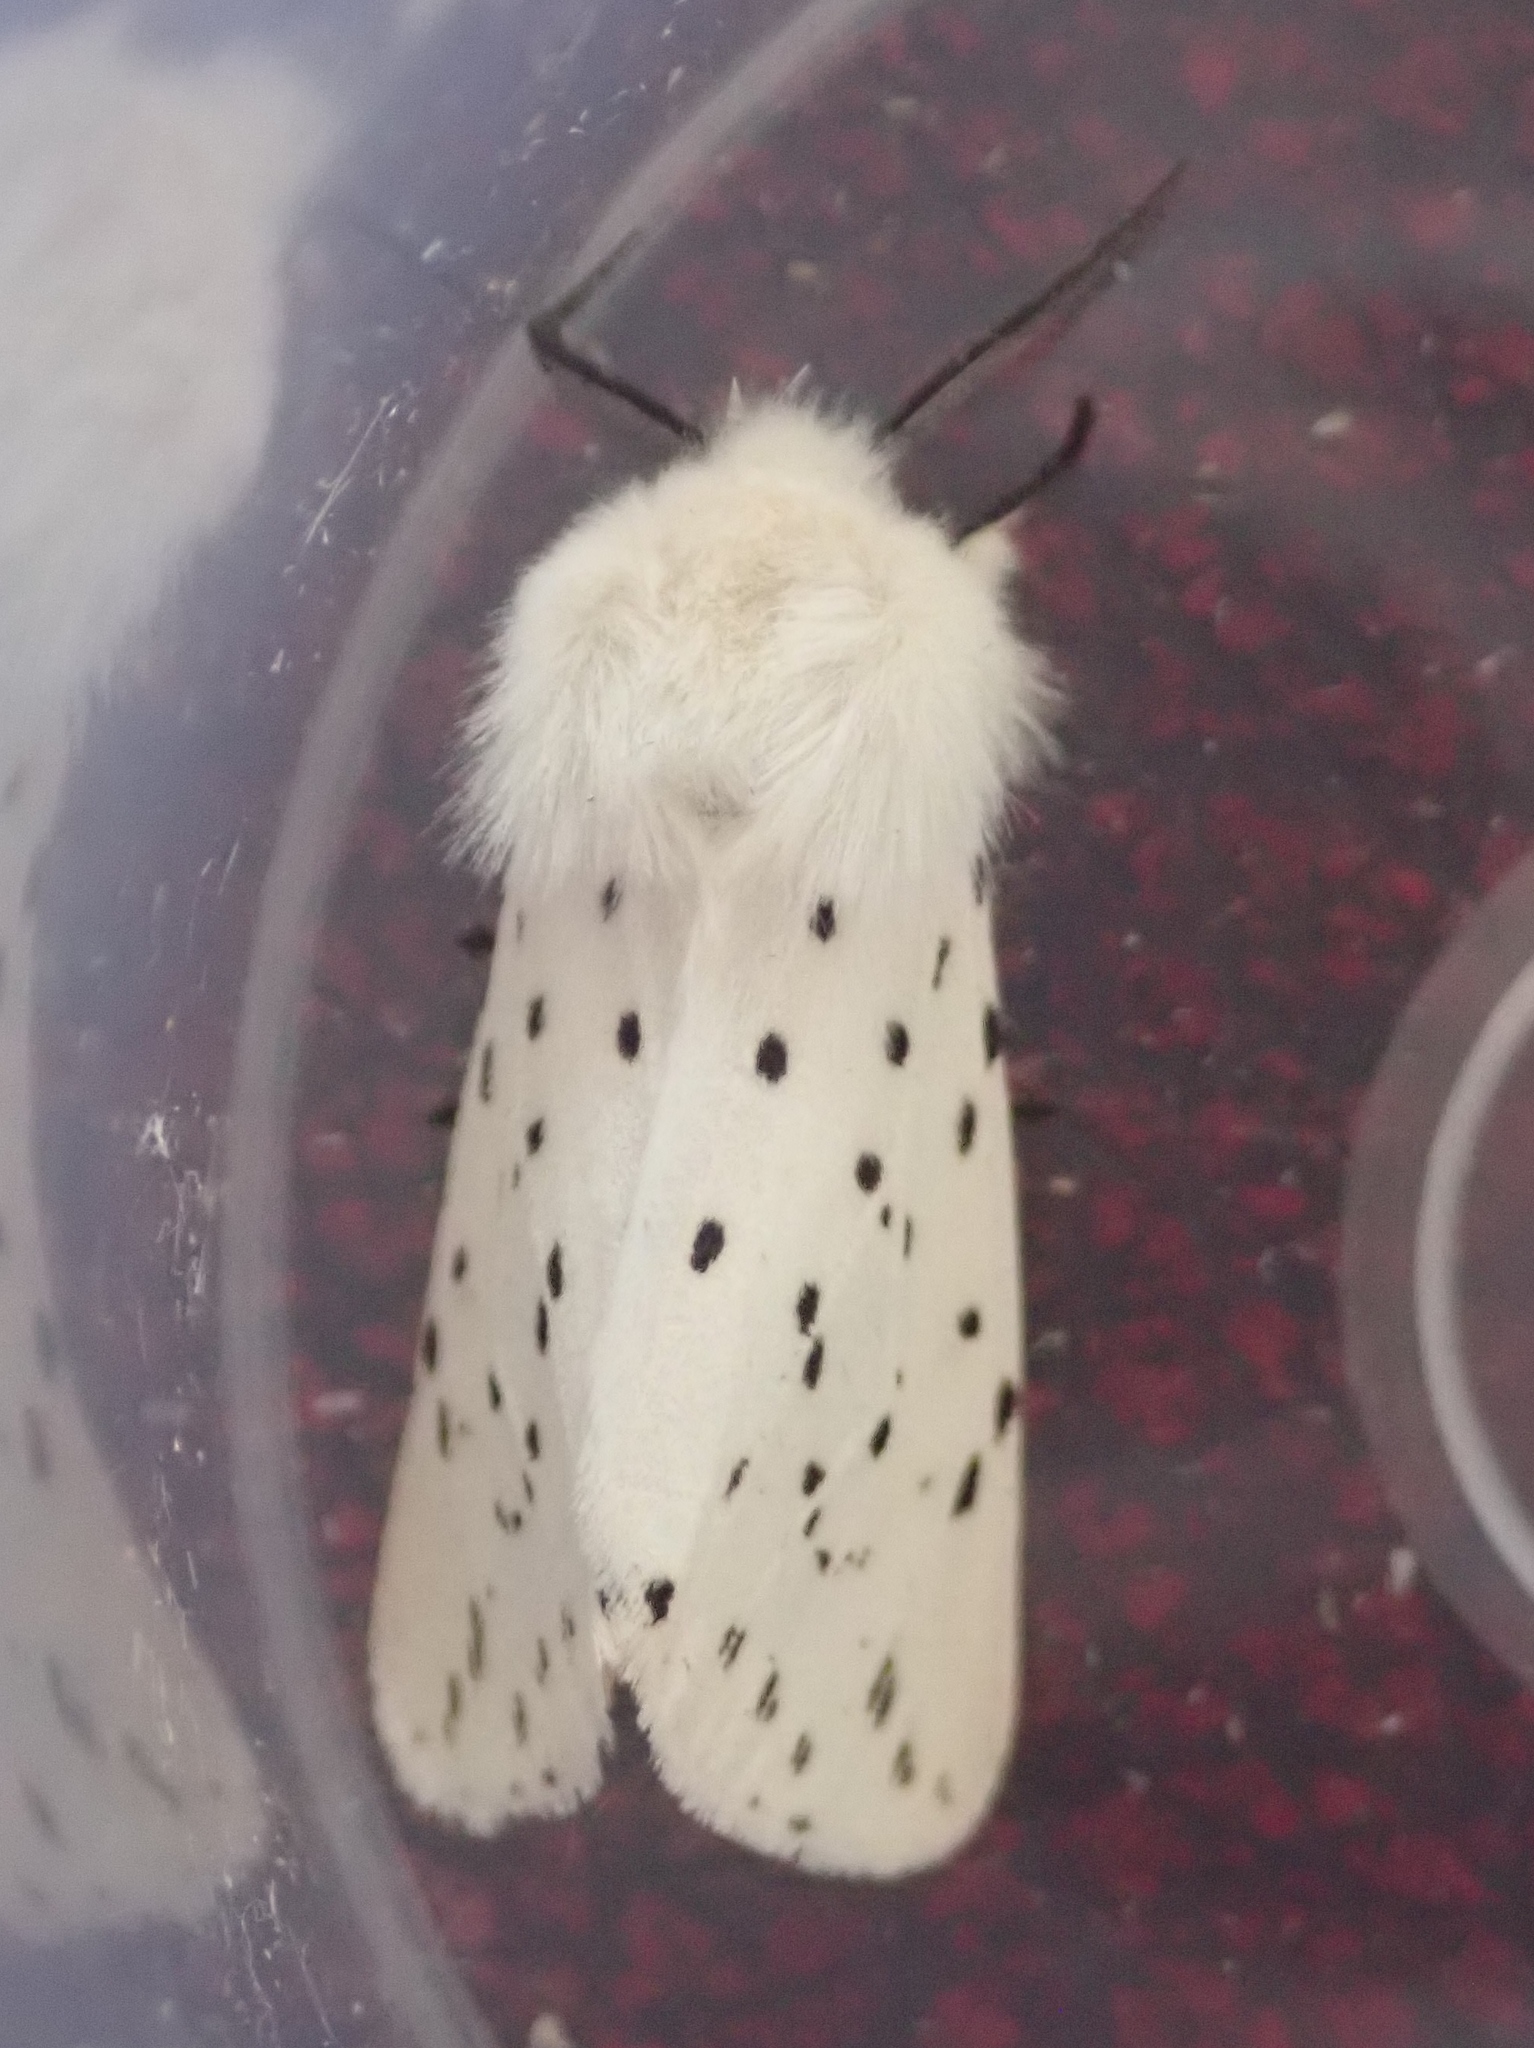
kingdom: Animalia
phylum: Arthropoda
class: Insecta
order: Lepidoptera
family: Erebidae
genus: Spilosoma
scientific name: Spilosoma lubricipeda
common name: White ermine
